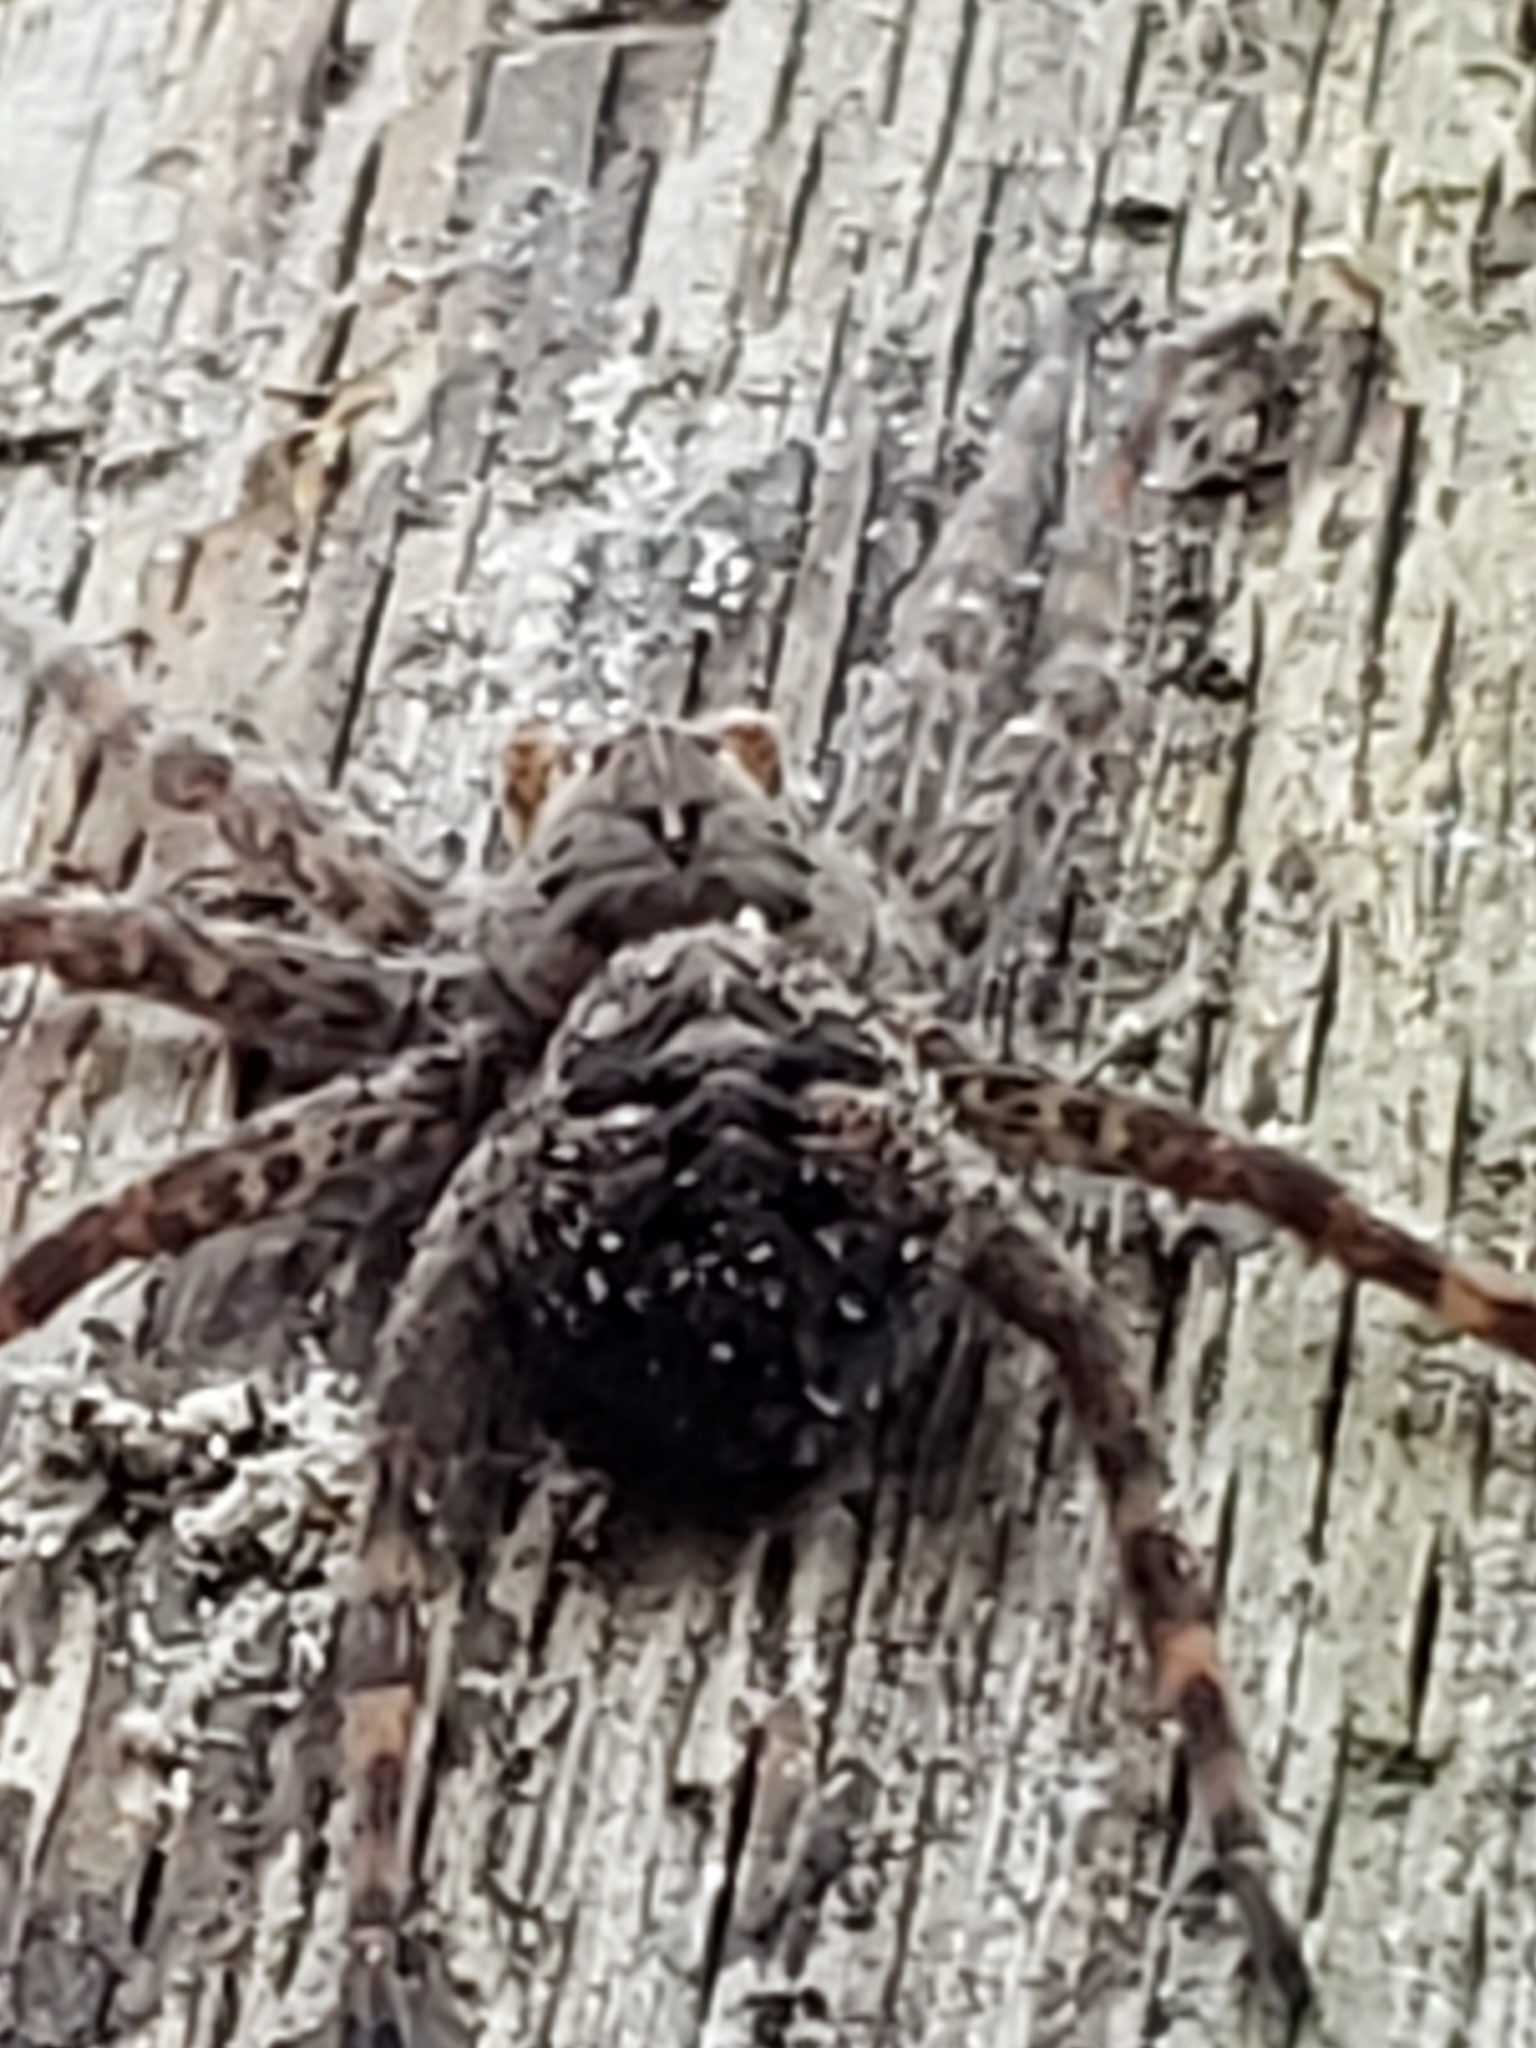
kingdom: Animalia
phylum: Arthropoda
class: Arachnida
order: Araneae
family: Pisauridae
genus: Dolomedes
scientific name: Dolomedes tenebrosus
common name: Dark fishing spider
